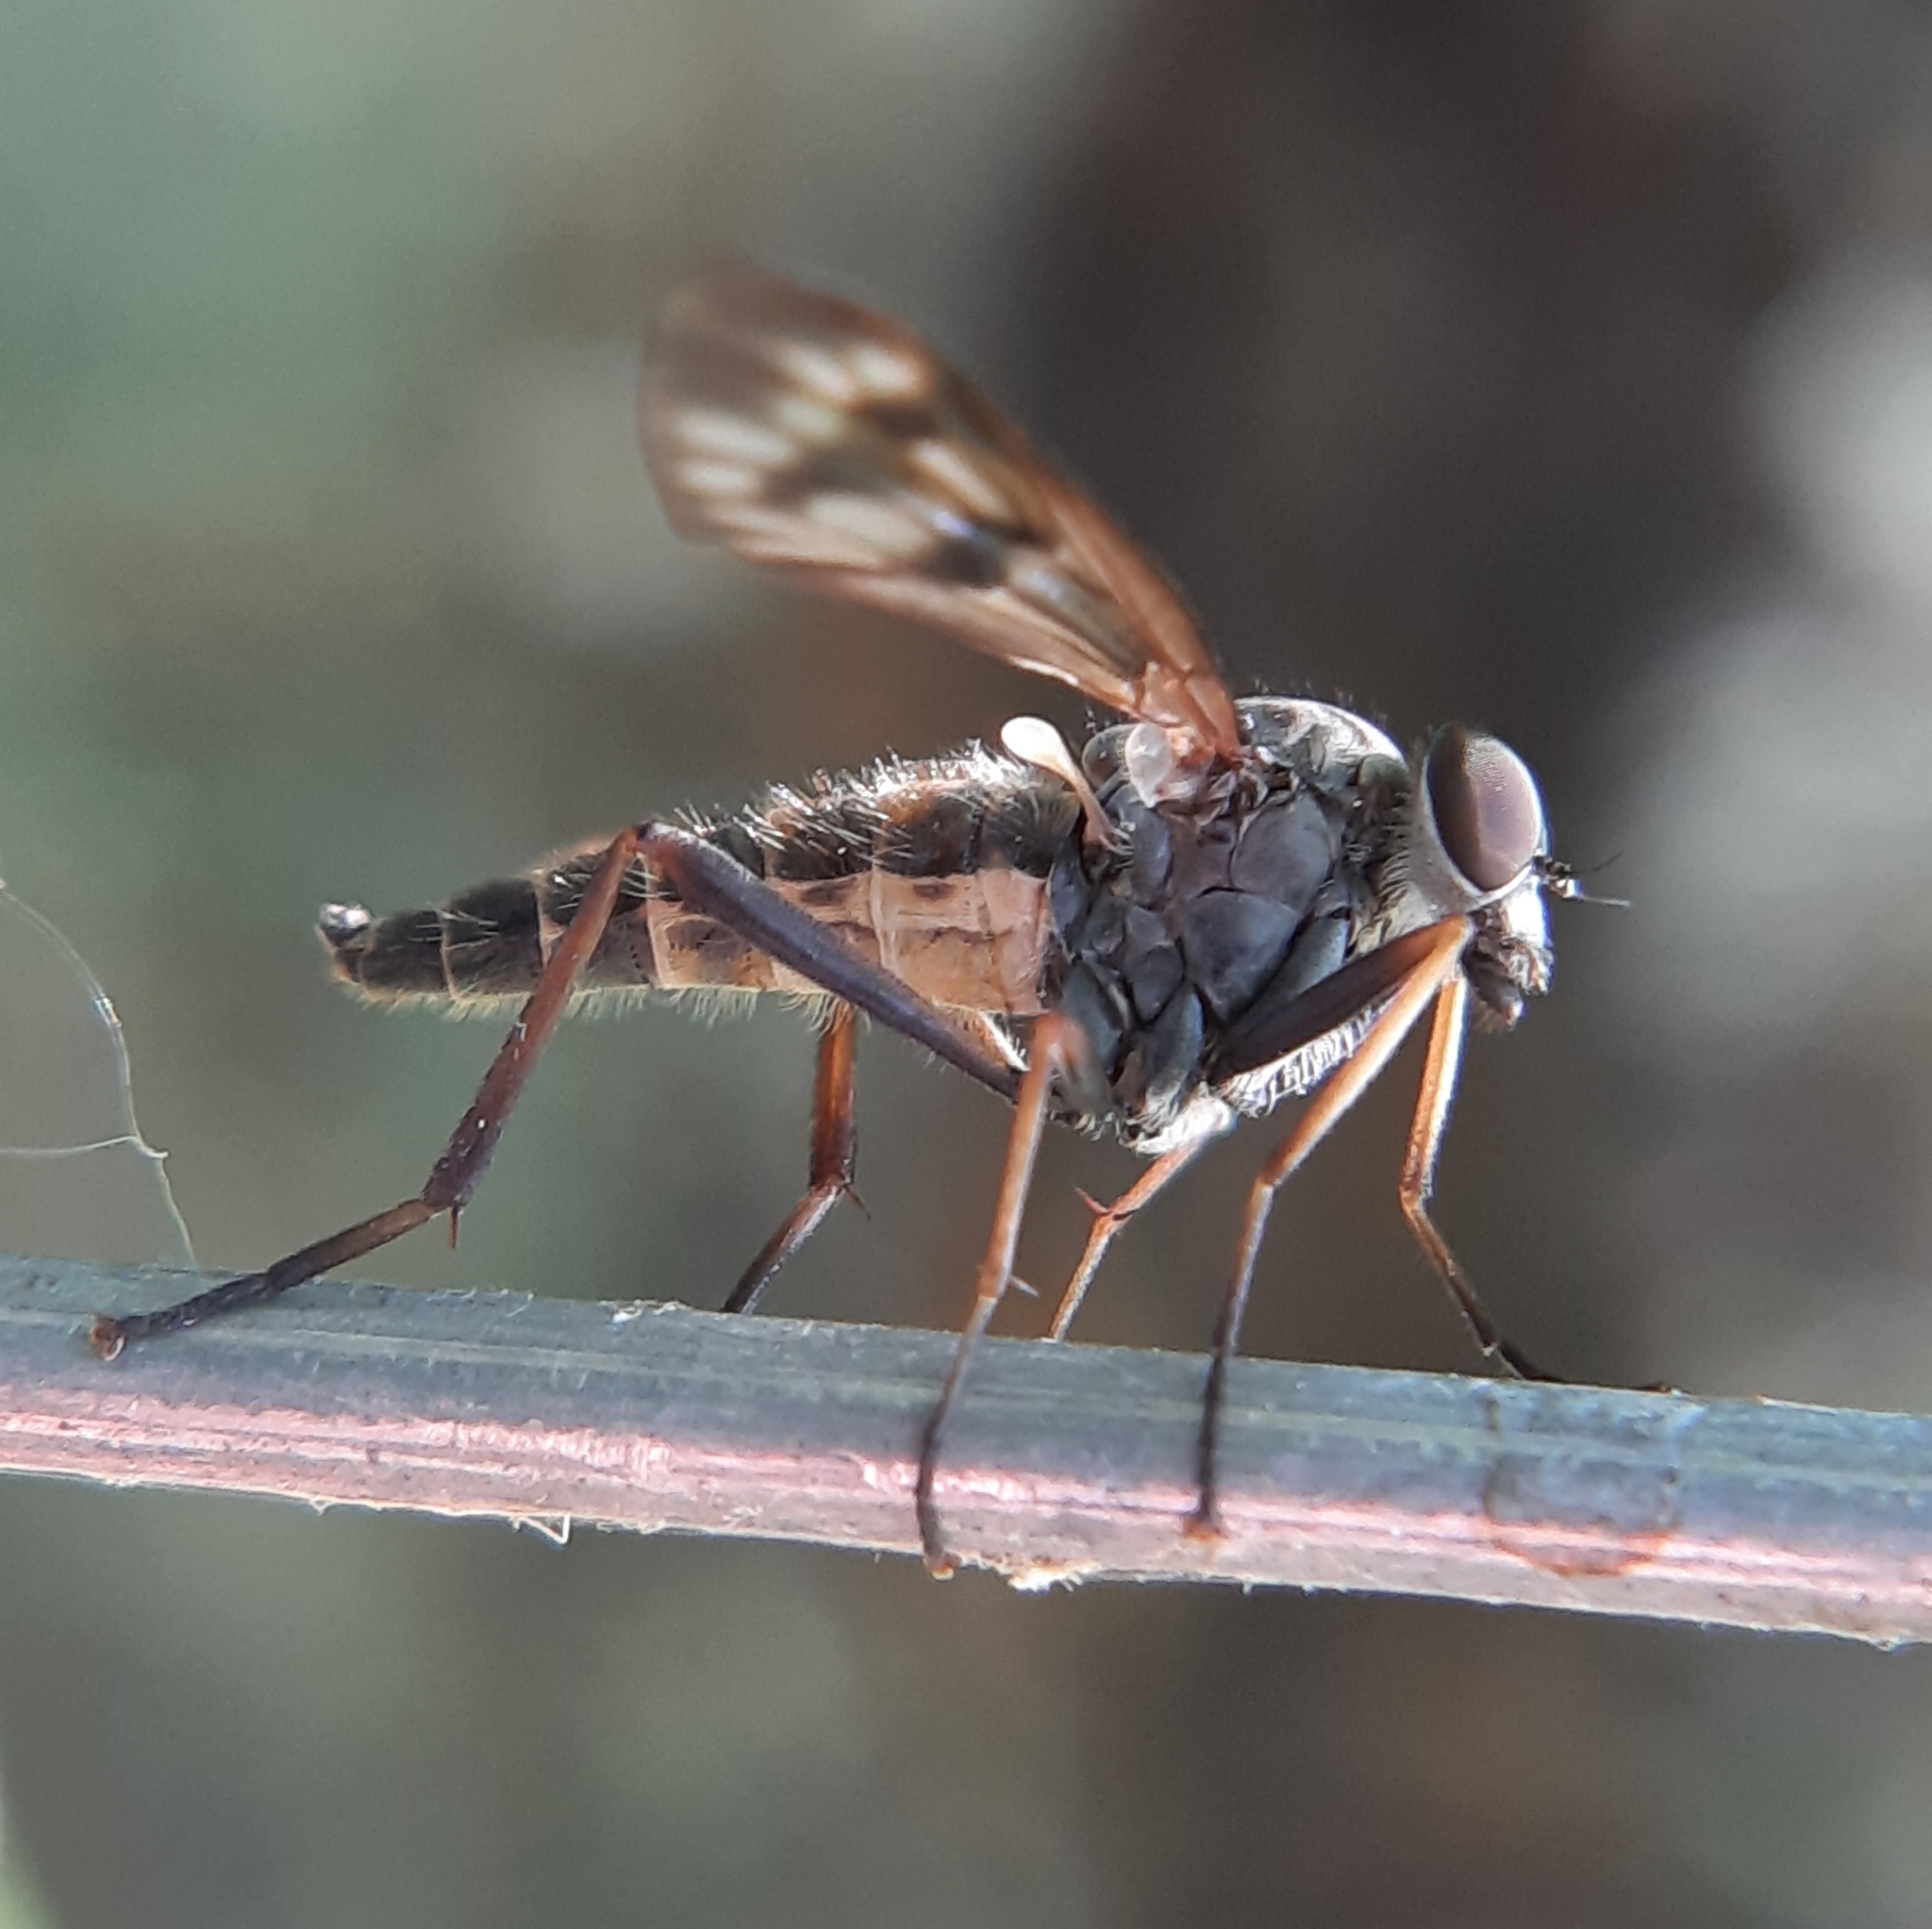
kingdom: Animalia
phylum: Arthropoda
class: Insecta
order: Diptera
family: Rhagionidae
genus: Rhagio
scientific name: Rhagio mystaceus
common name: Common snipe fly
